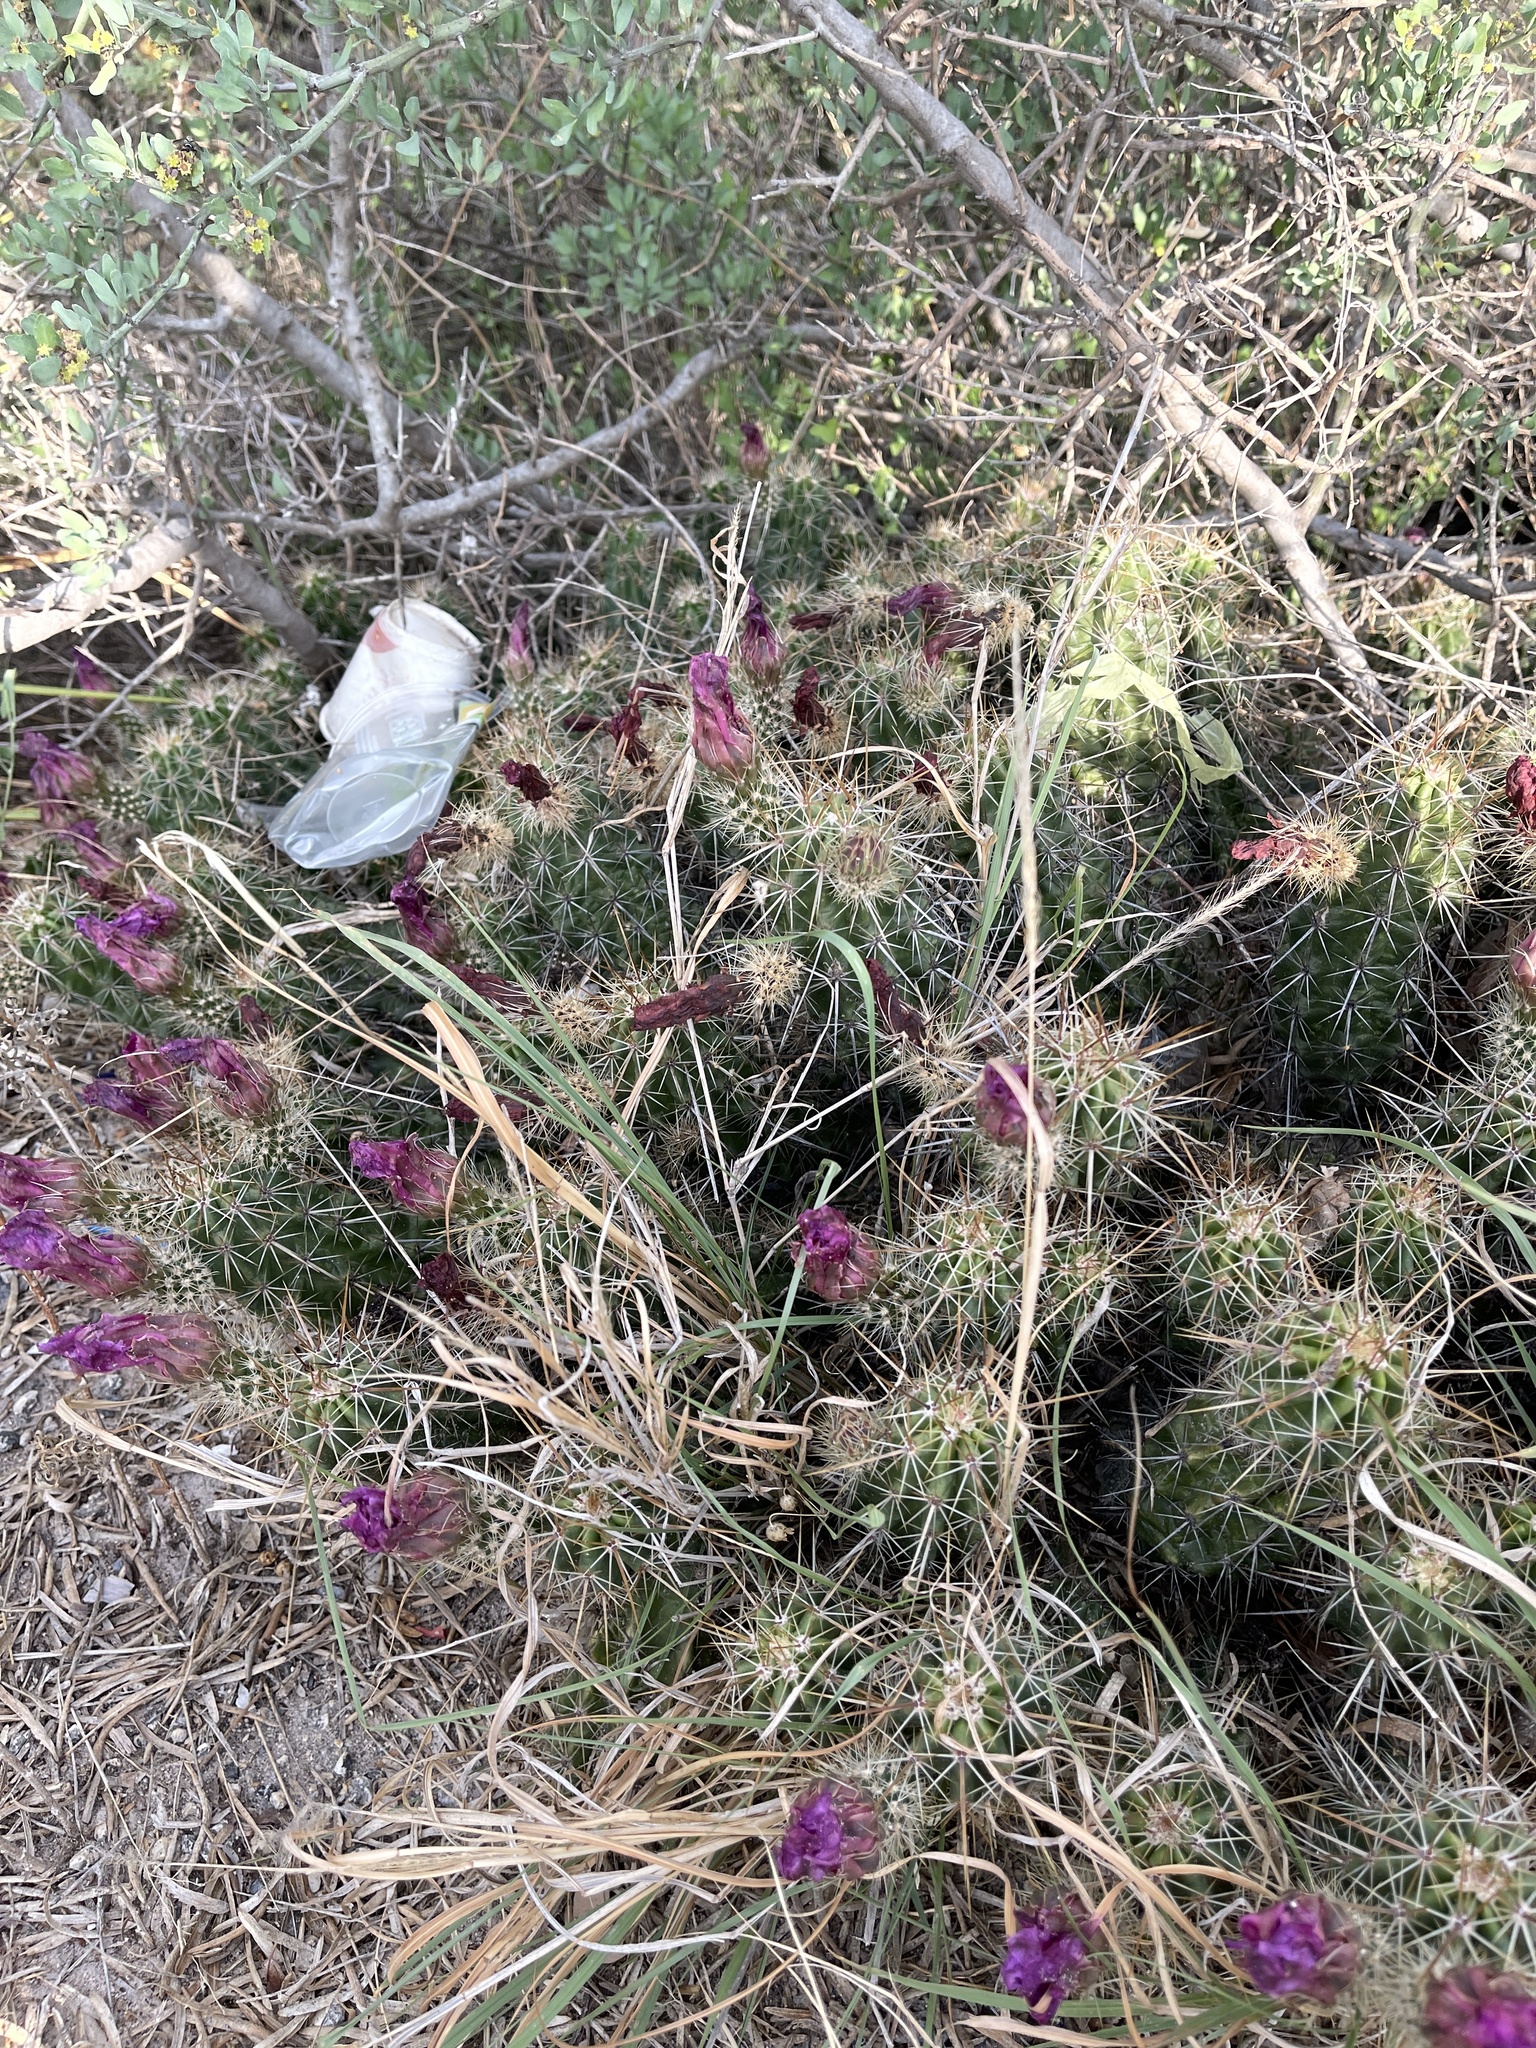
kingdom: Plantae
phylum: Tracheophyta
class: Magnoliopsida
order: Caryophyllales
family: Cactaceae
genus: Echinocereus
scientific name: Echinocereus enneacanthus
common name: Pitaya
